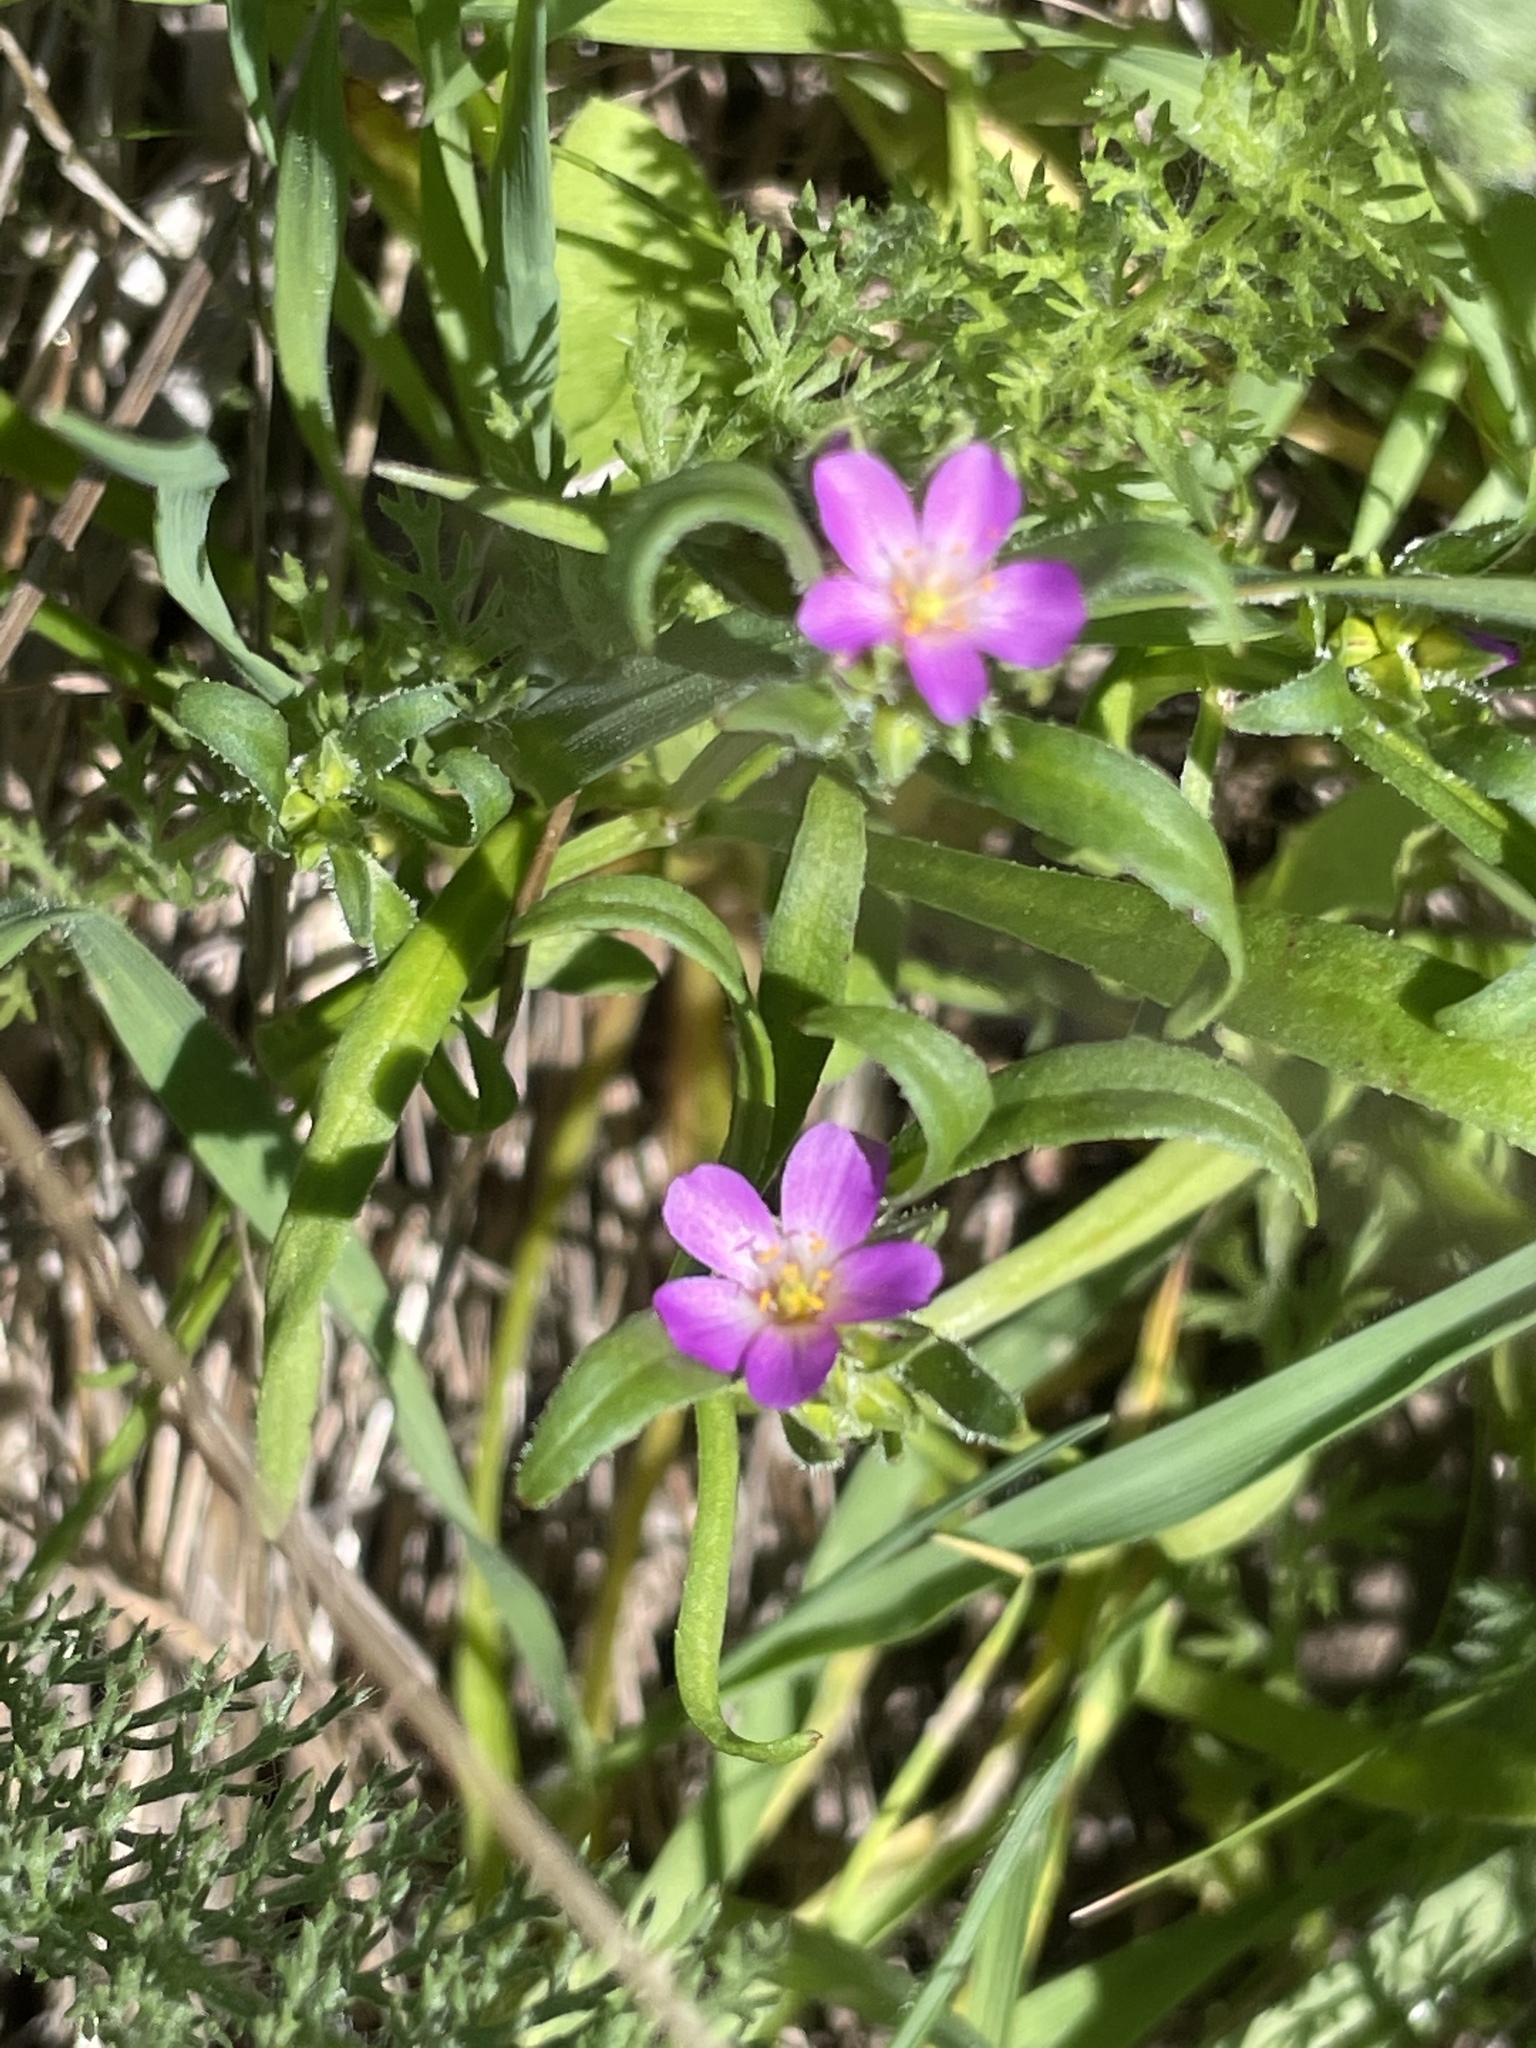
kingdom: Plantae
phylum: Tracheophyta
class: Magnoliopsida
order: Caryophyllales
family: Montiaceae
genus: Calandrinia
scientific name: Calandrinia menziesii
